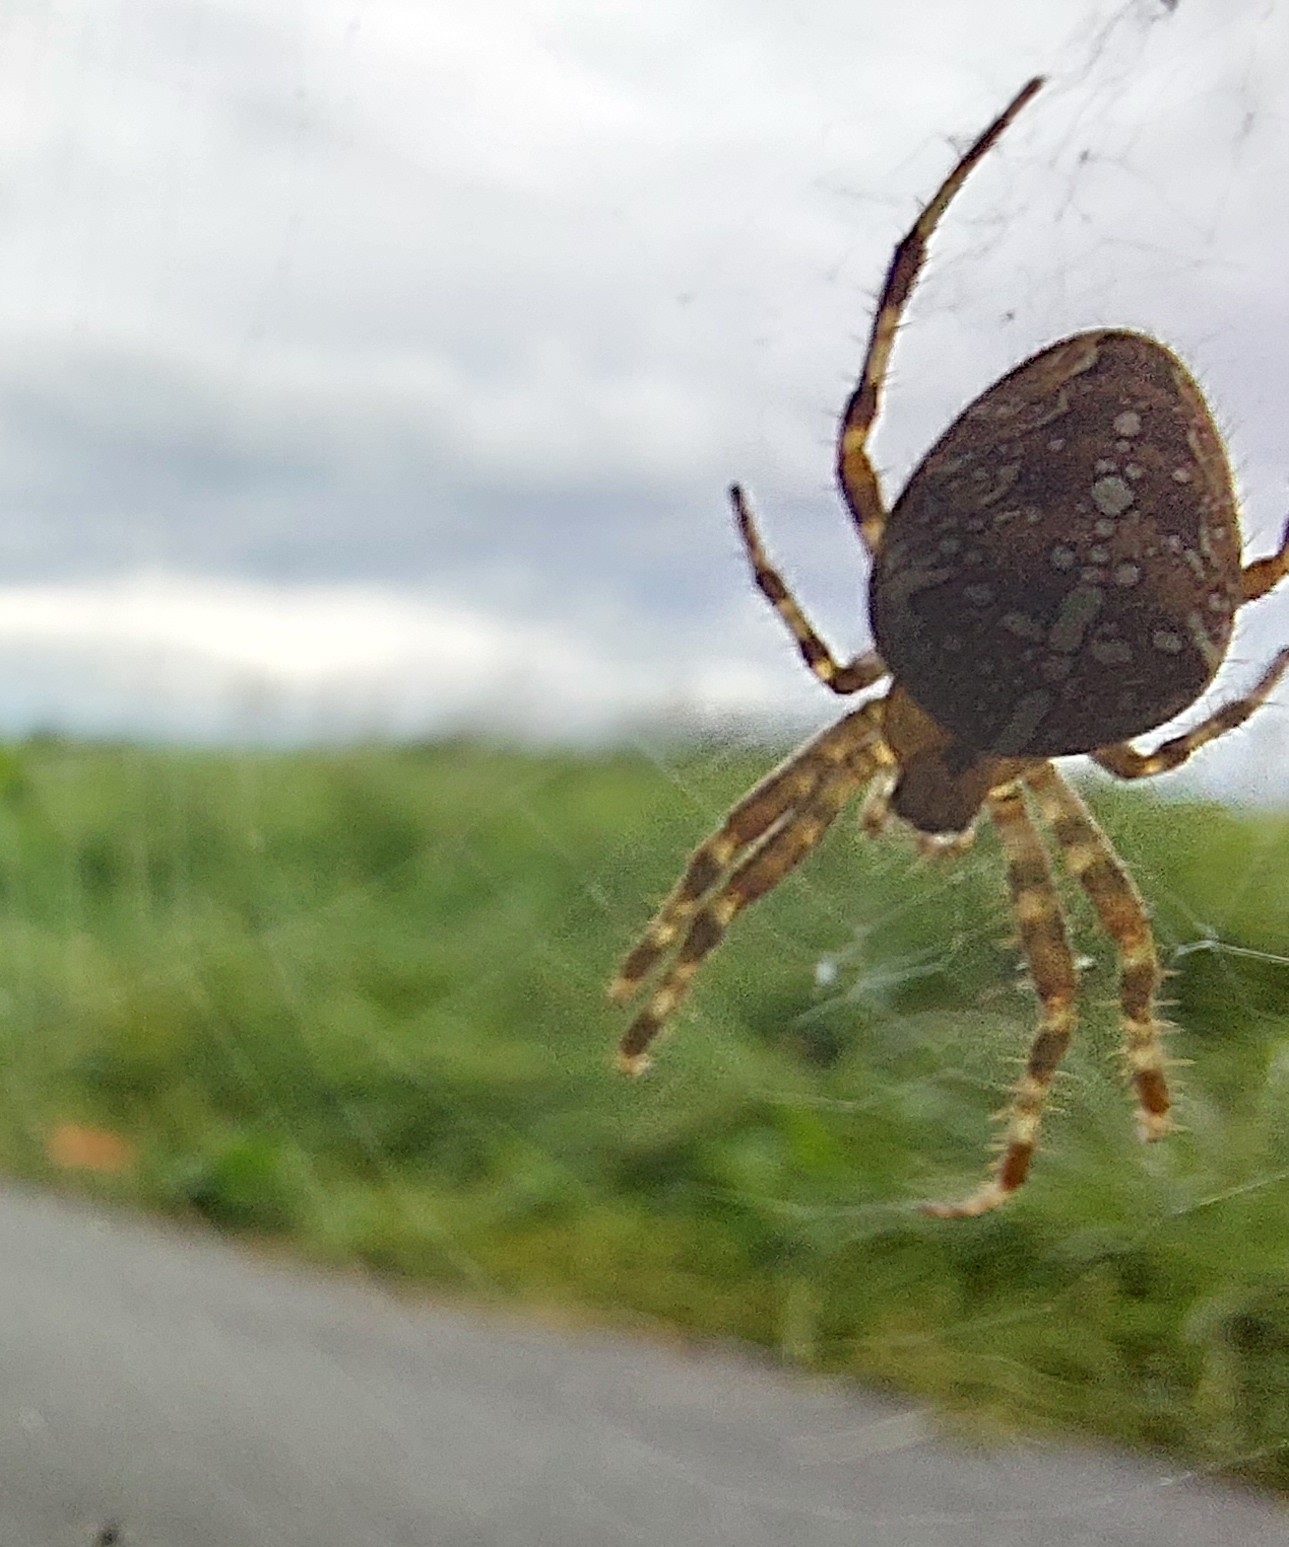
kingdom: Animalia
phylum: Arthropoda
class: Arachnida
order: Araneae
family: Araneidae
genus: Araneus
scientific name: Araneus diadematus
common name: Cross orbweaver
